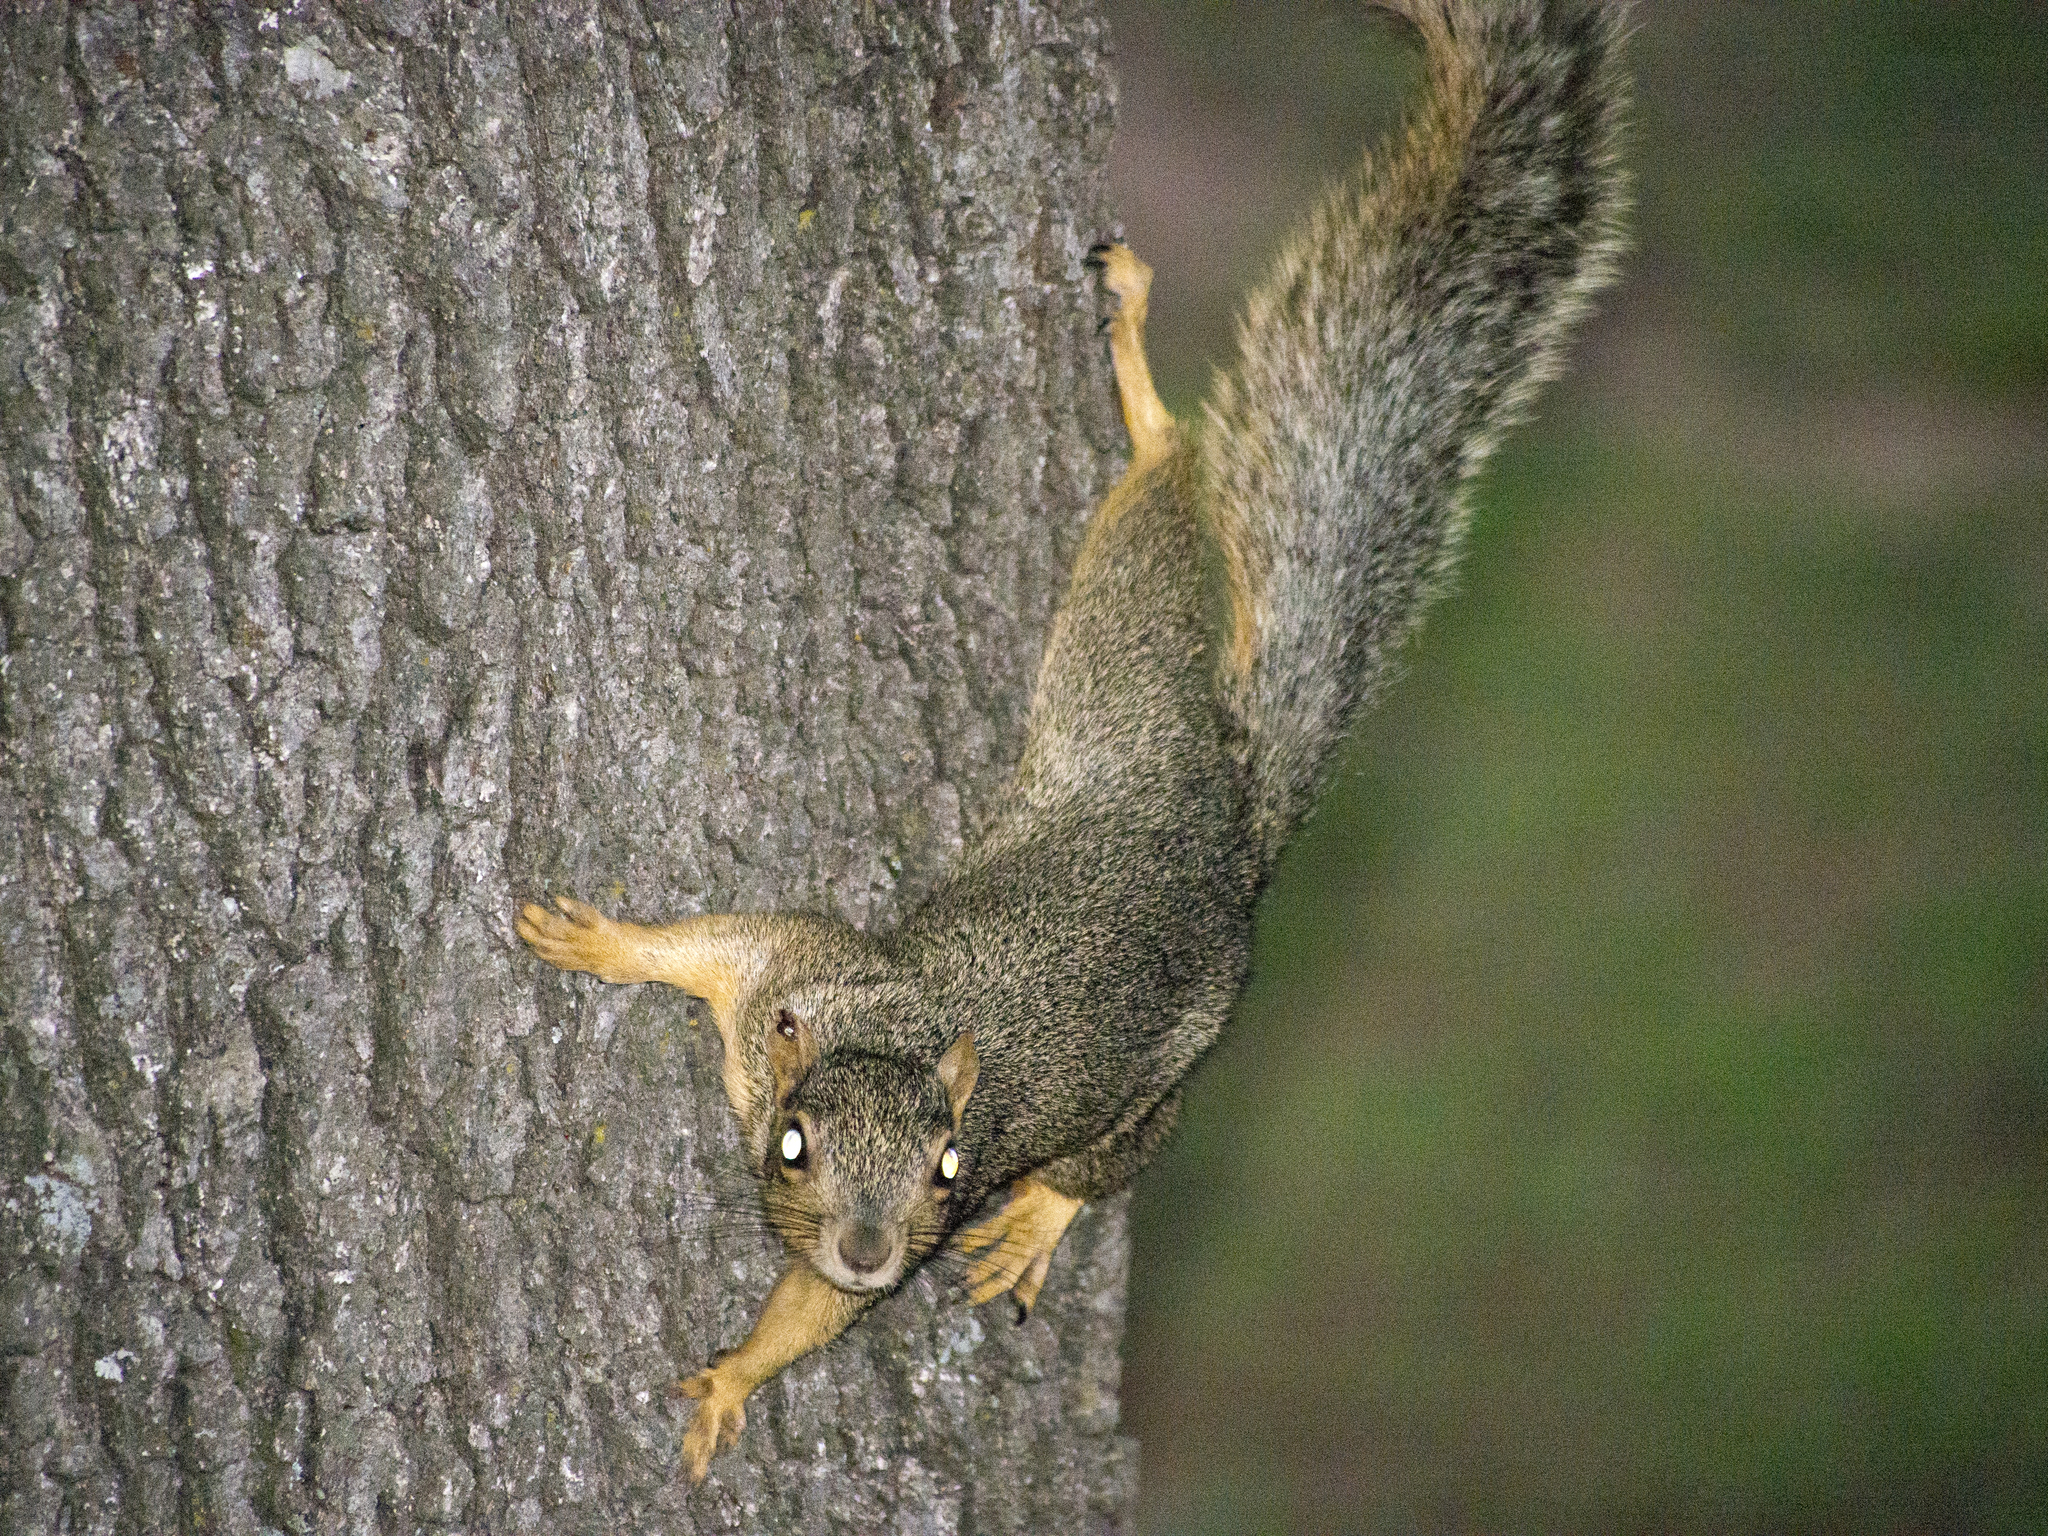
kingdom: Animalia
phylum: Chordata
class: Mammalia
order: Rodentia
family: Sciuridae
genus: Sciurus
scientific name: Sciurus niger
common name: Fox squirrel
